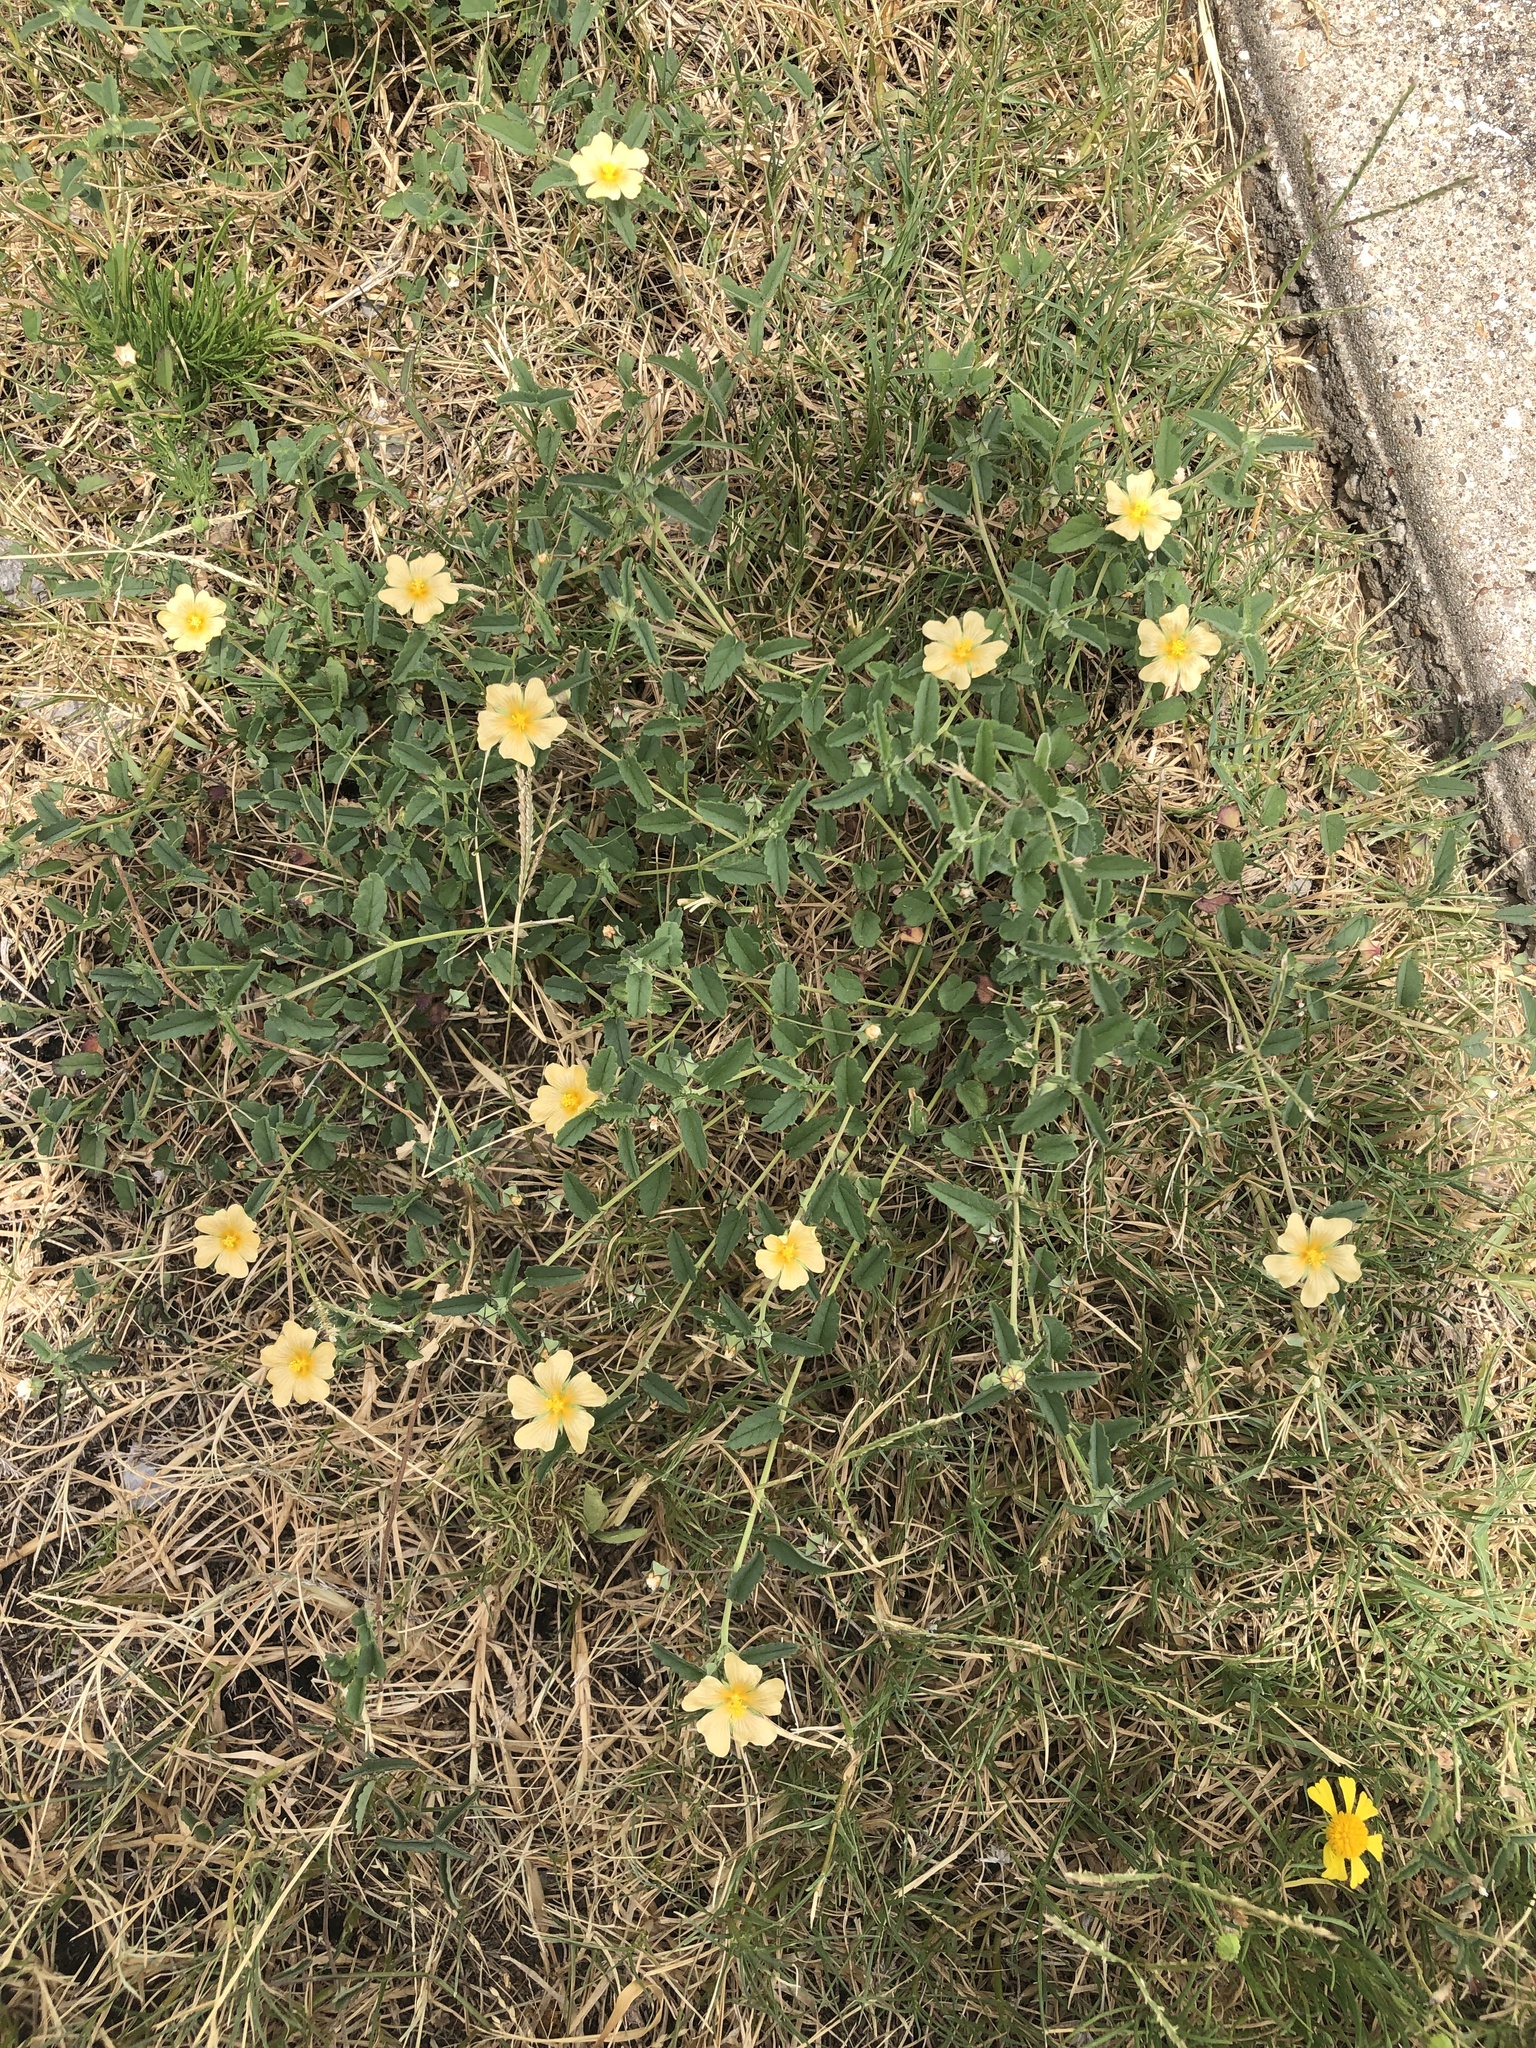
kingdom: Plantae
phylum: Tracheophyta
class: Magnoliopsida
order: Malvales
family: Malvaceae
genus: Sida
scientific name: Sida abutilifolia
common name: Spreading fanpetals
